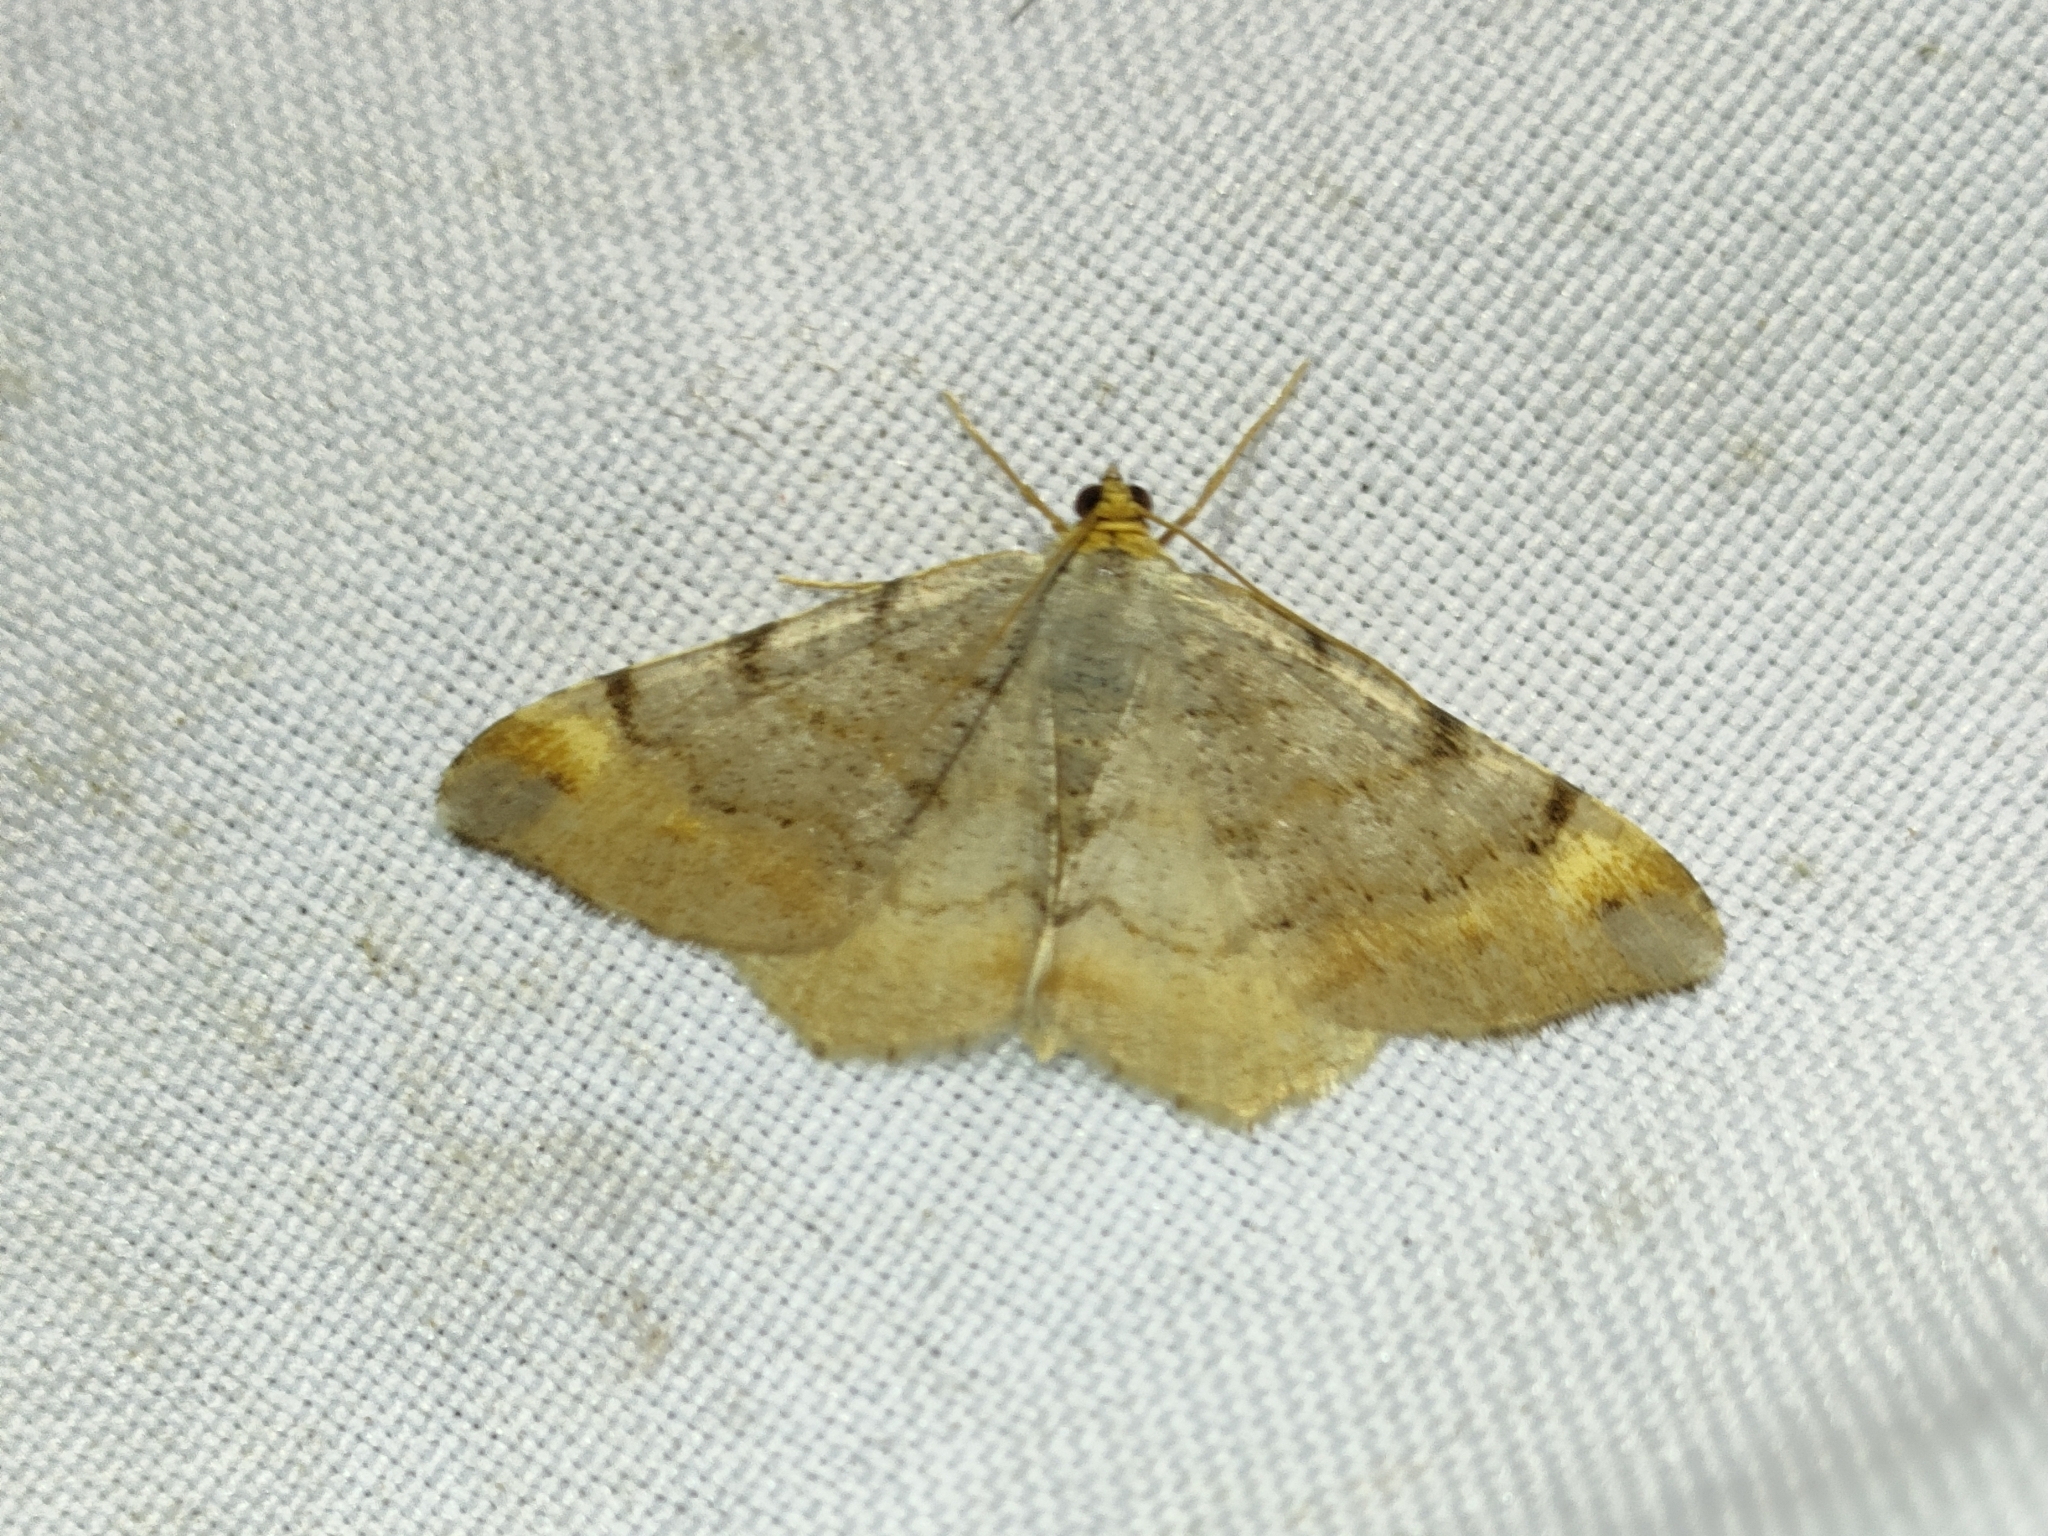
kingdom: Animalia
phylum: Arthropoda
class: Insecta
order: Lepidoptera
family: Geometridae
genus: Macaria
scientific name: Macaria liturata
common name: Tawny-barred angle
